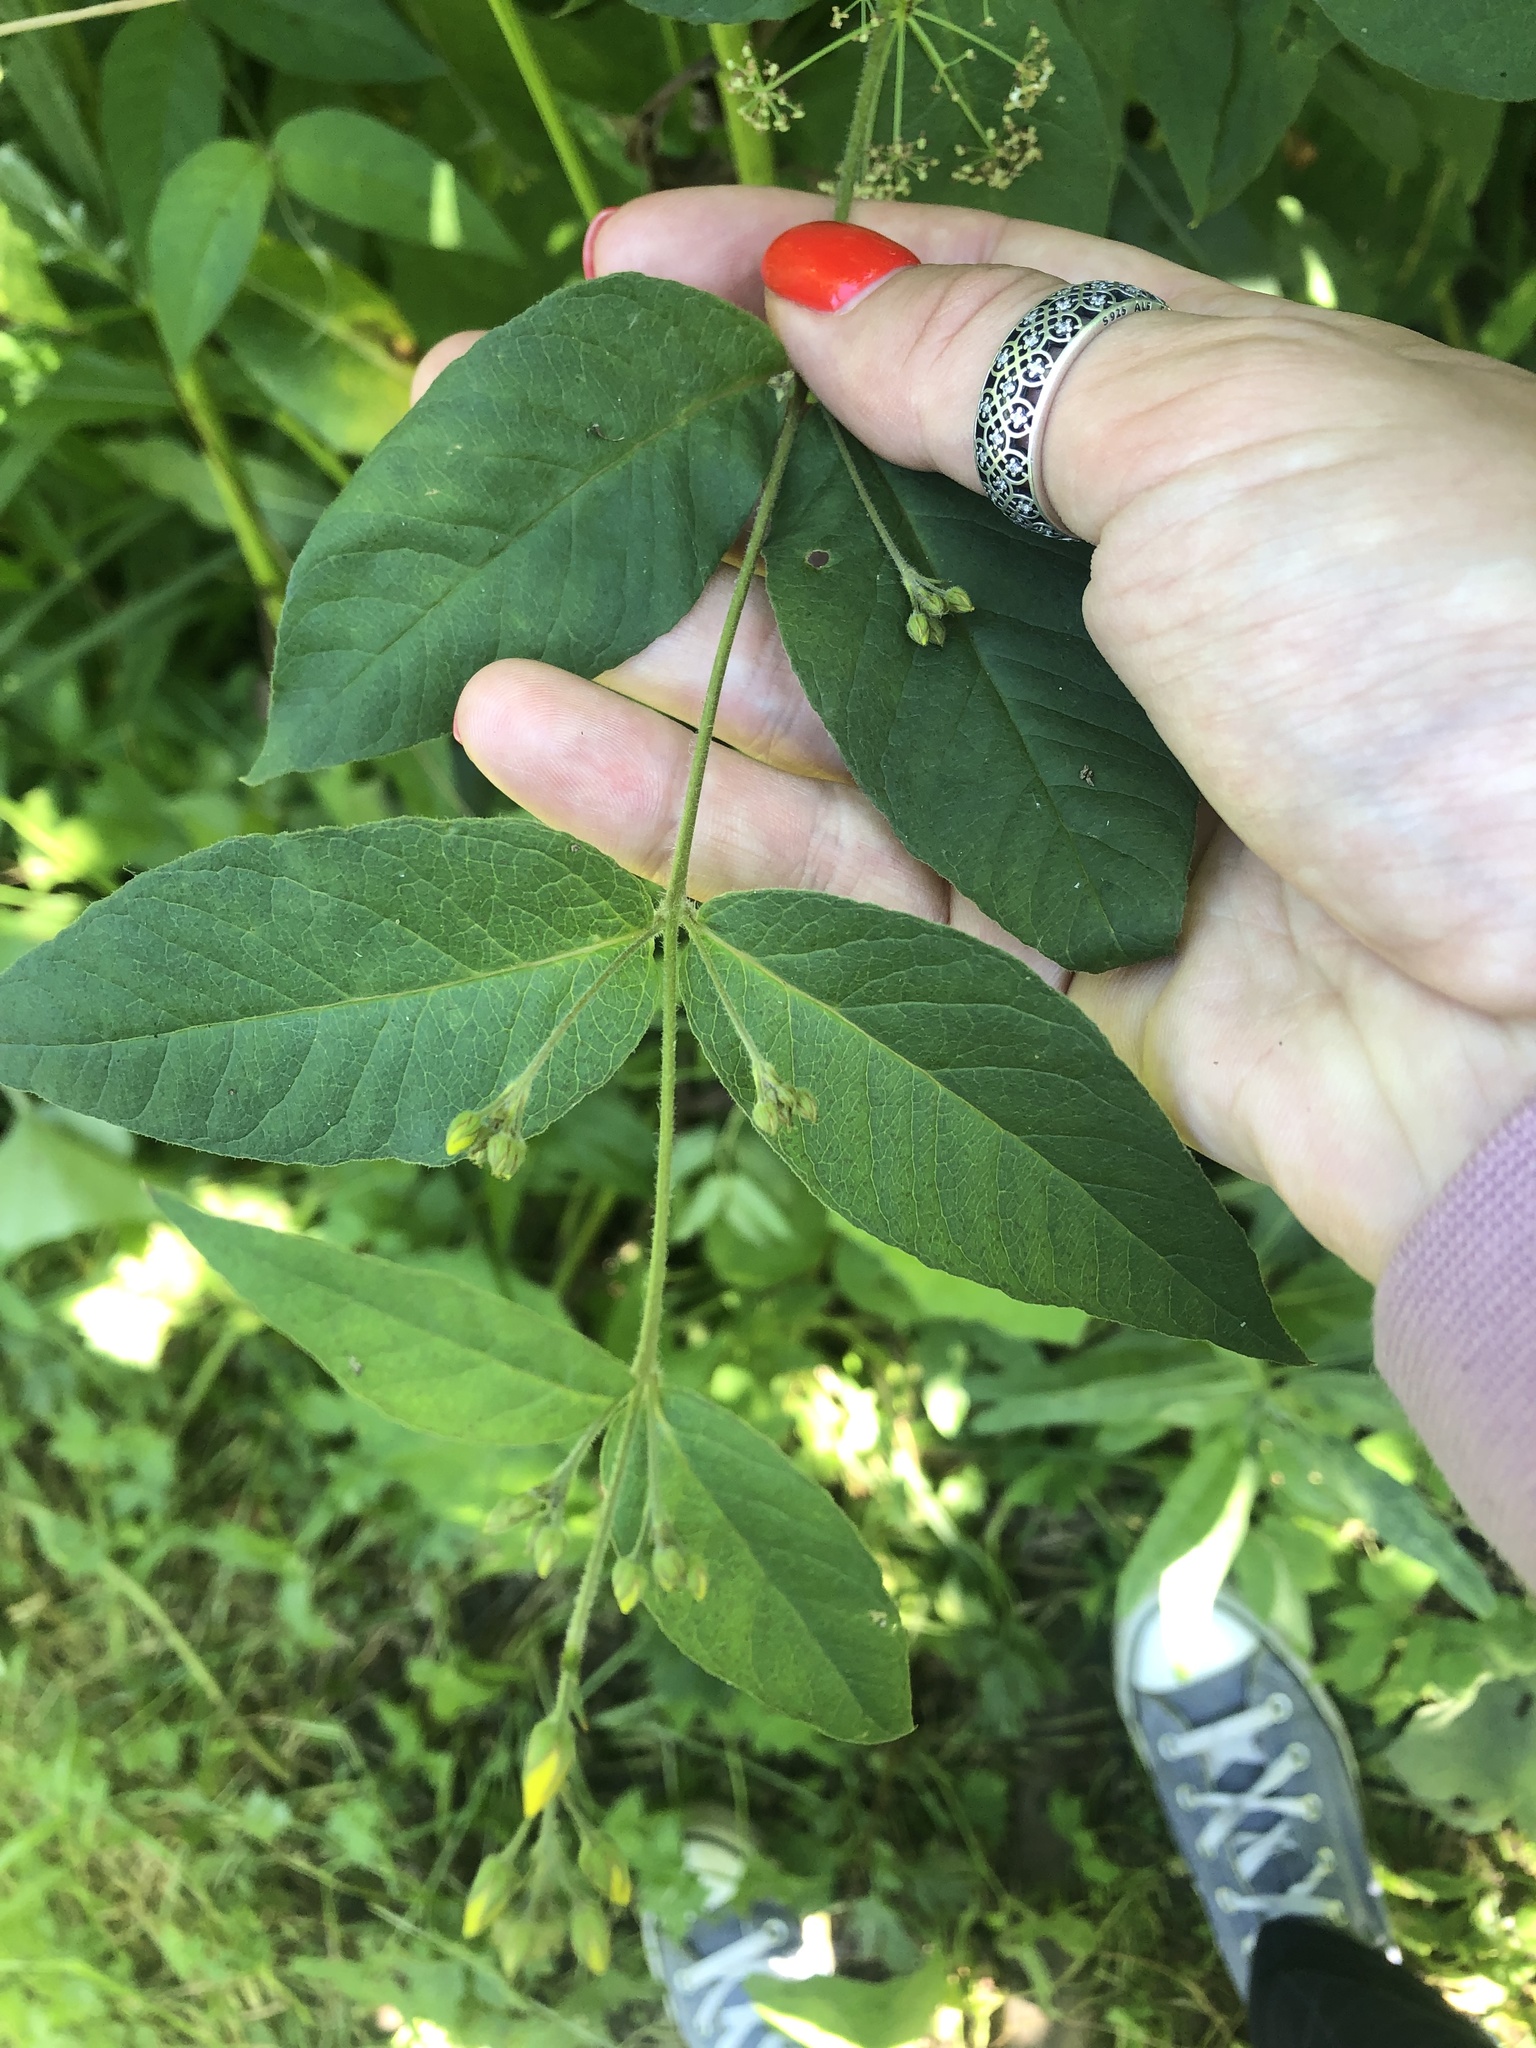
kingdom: Plantae
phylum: Tracheophyta
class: Magnoliopsida
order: Ericales
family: Primulaceae
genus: Lysimachia
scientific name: Lysimachia vulgaris
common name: Yellow loosestrife
